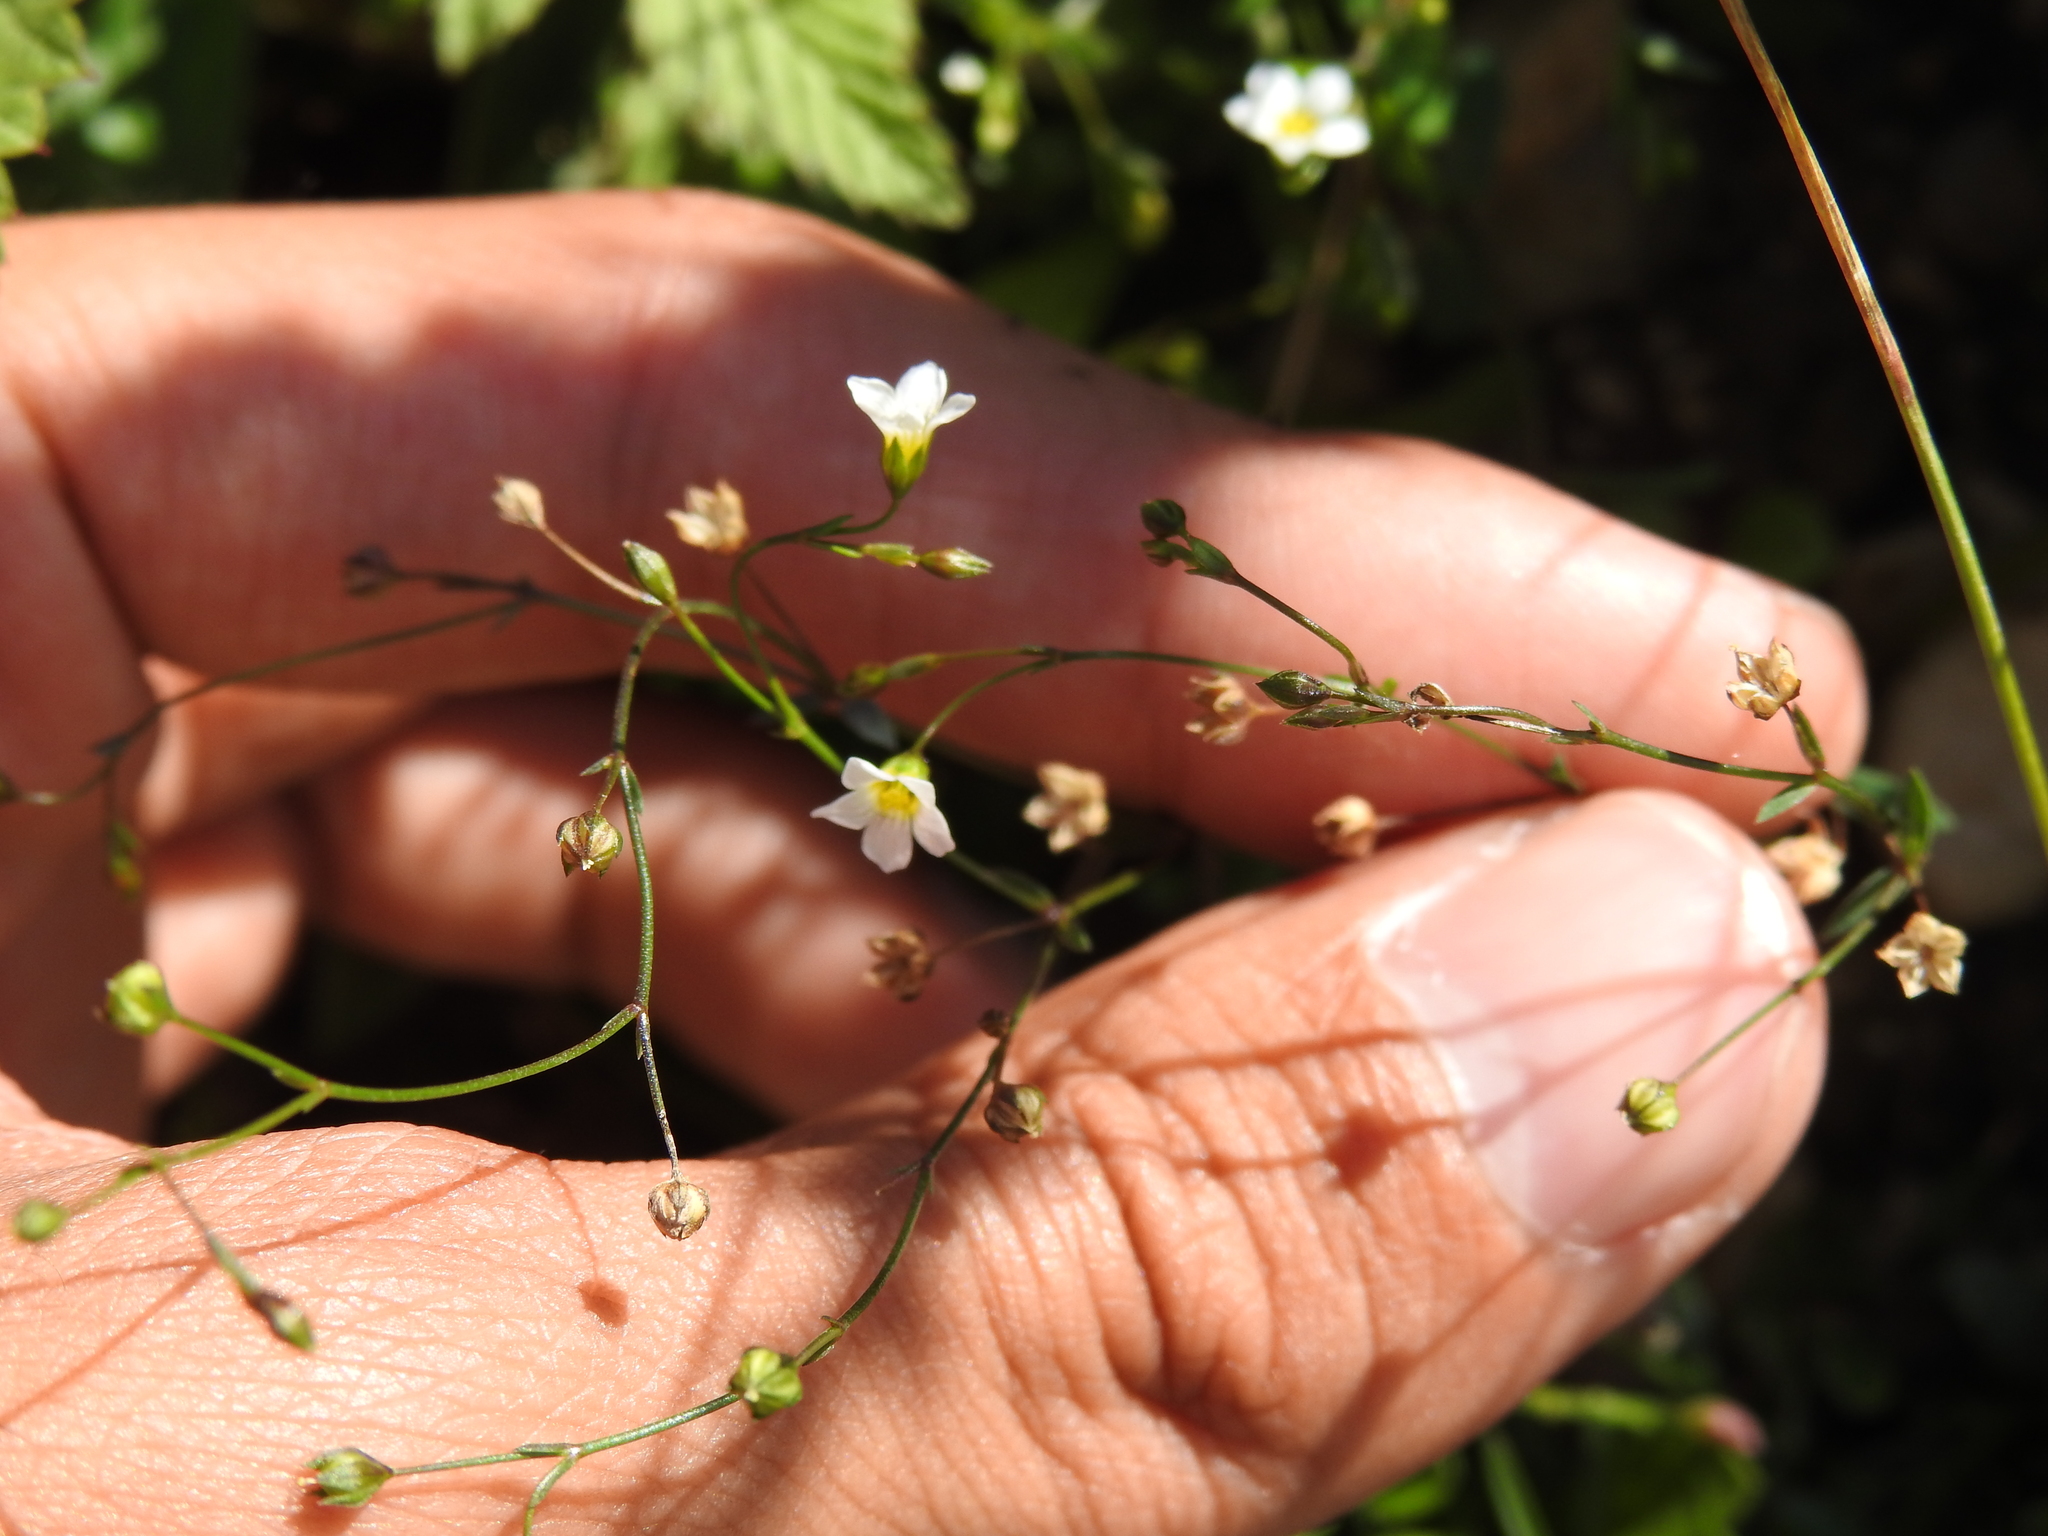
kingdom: Plantae
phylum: Tracheophyta
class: Magnoliopsida
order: Malpighiales
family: Linaceae
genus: Linum
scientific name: Linum catharticum
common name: Fairy flax
